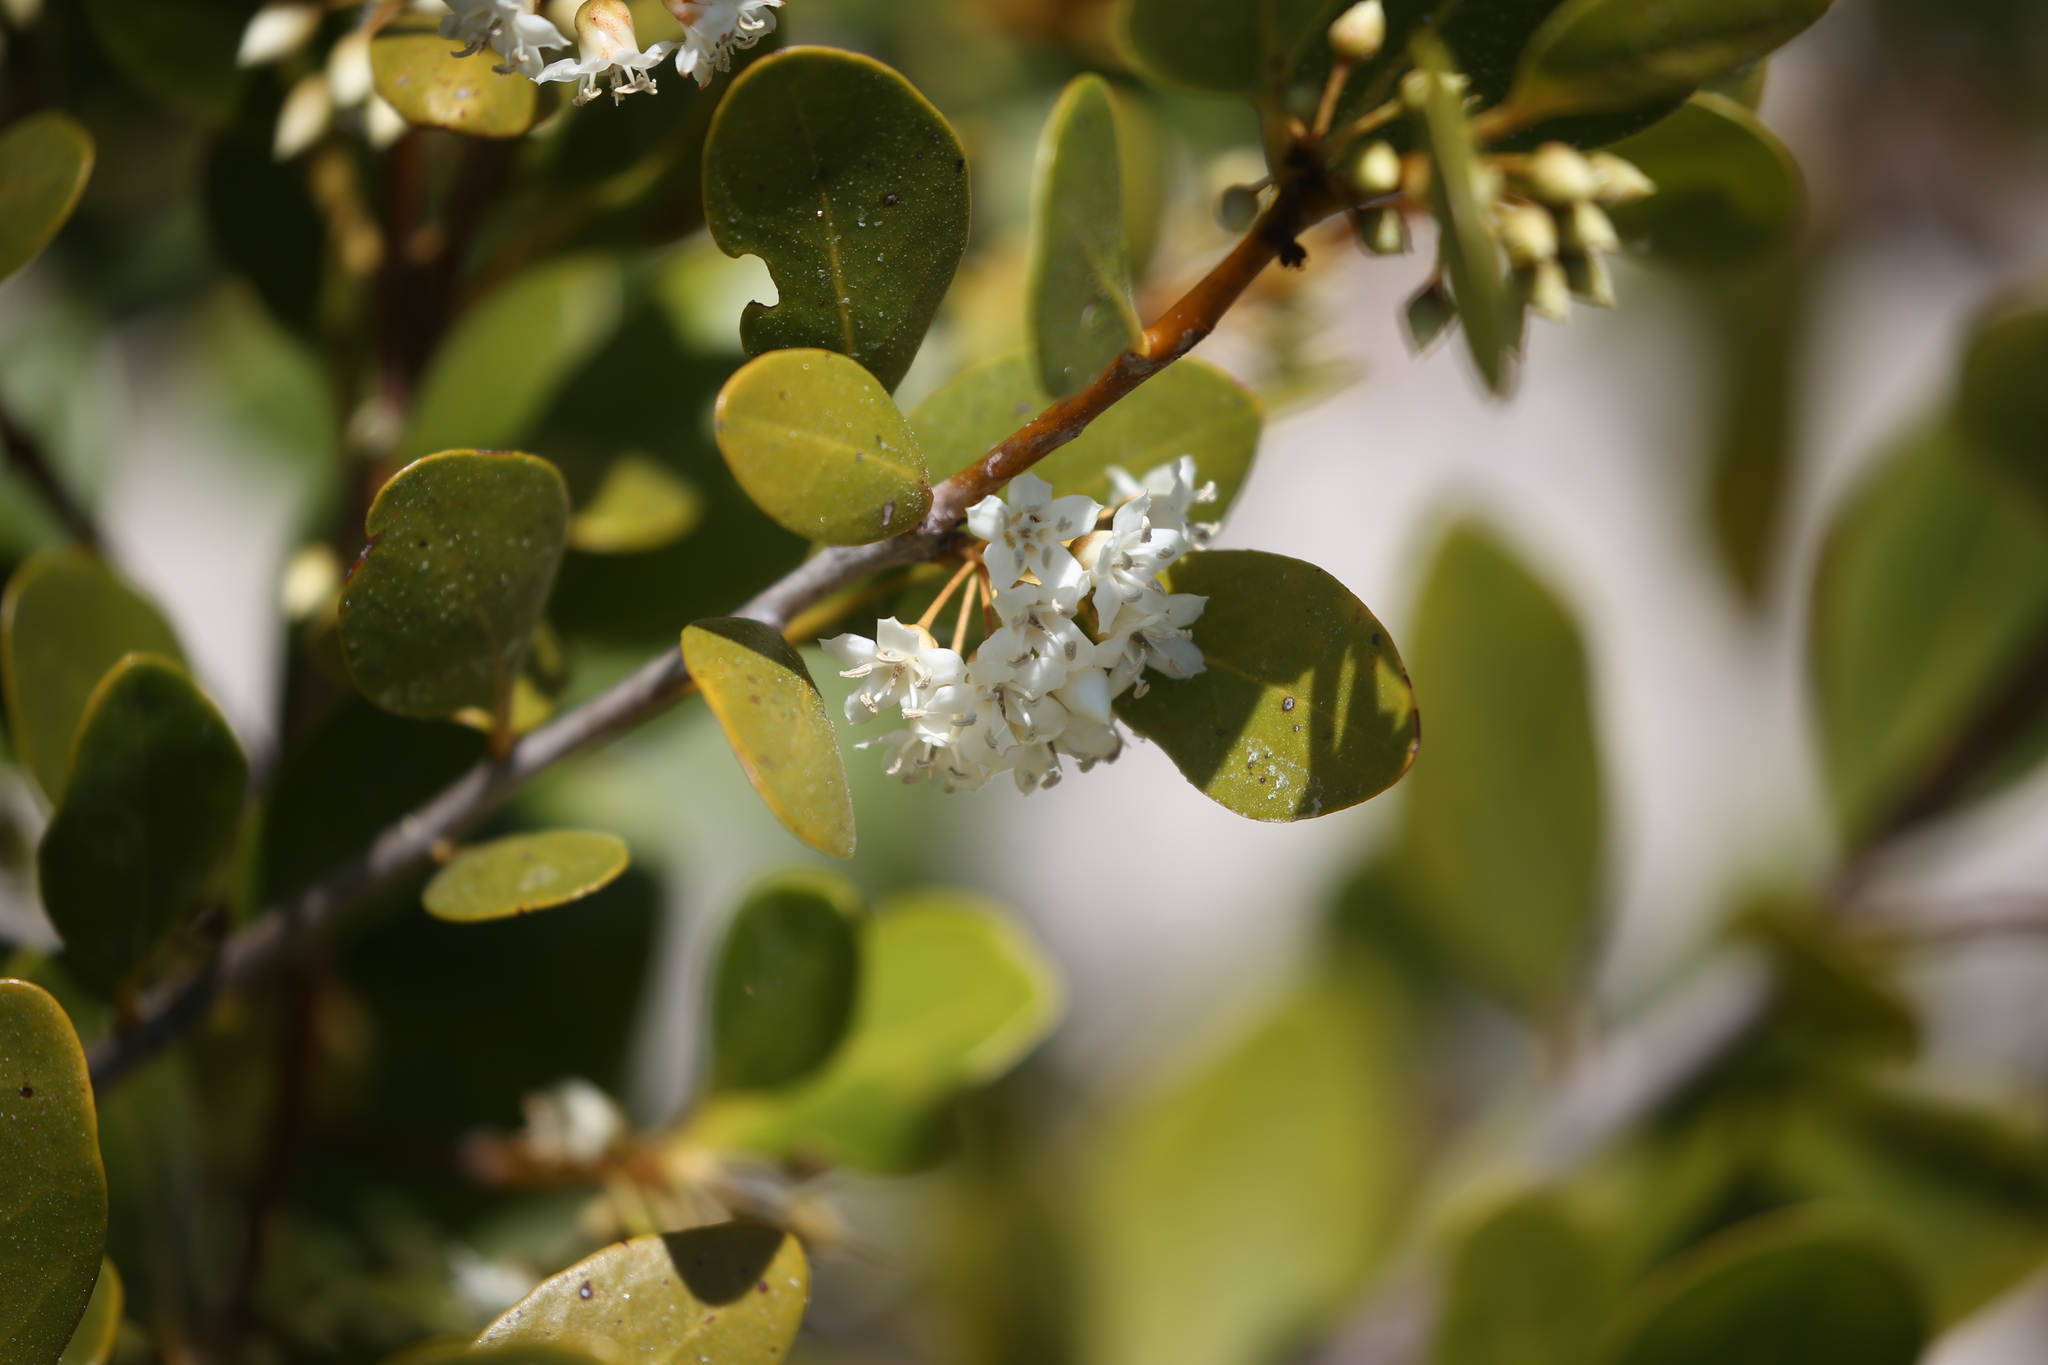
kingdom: Plantae
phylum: Tracheophyta
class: Magnoliopsida
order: Ericales
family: Primulaceae
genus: Aegiceras
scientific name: Aegiceras corniculatum
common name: River mangrove
